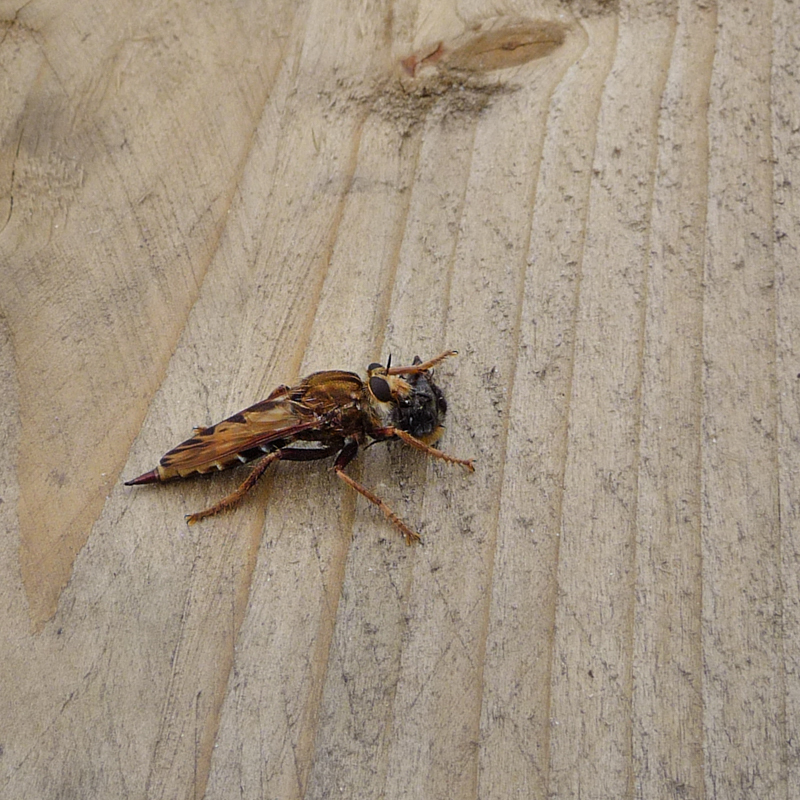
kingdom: Animalia
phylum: Arthropoda
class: Insecta
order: Diptera
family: Asilidae
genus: Asilus
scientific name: Asilus crabroniformis
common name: Hornet robberfly
